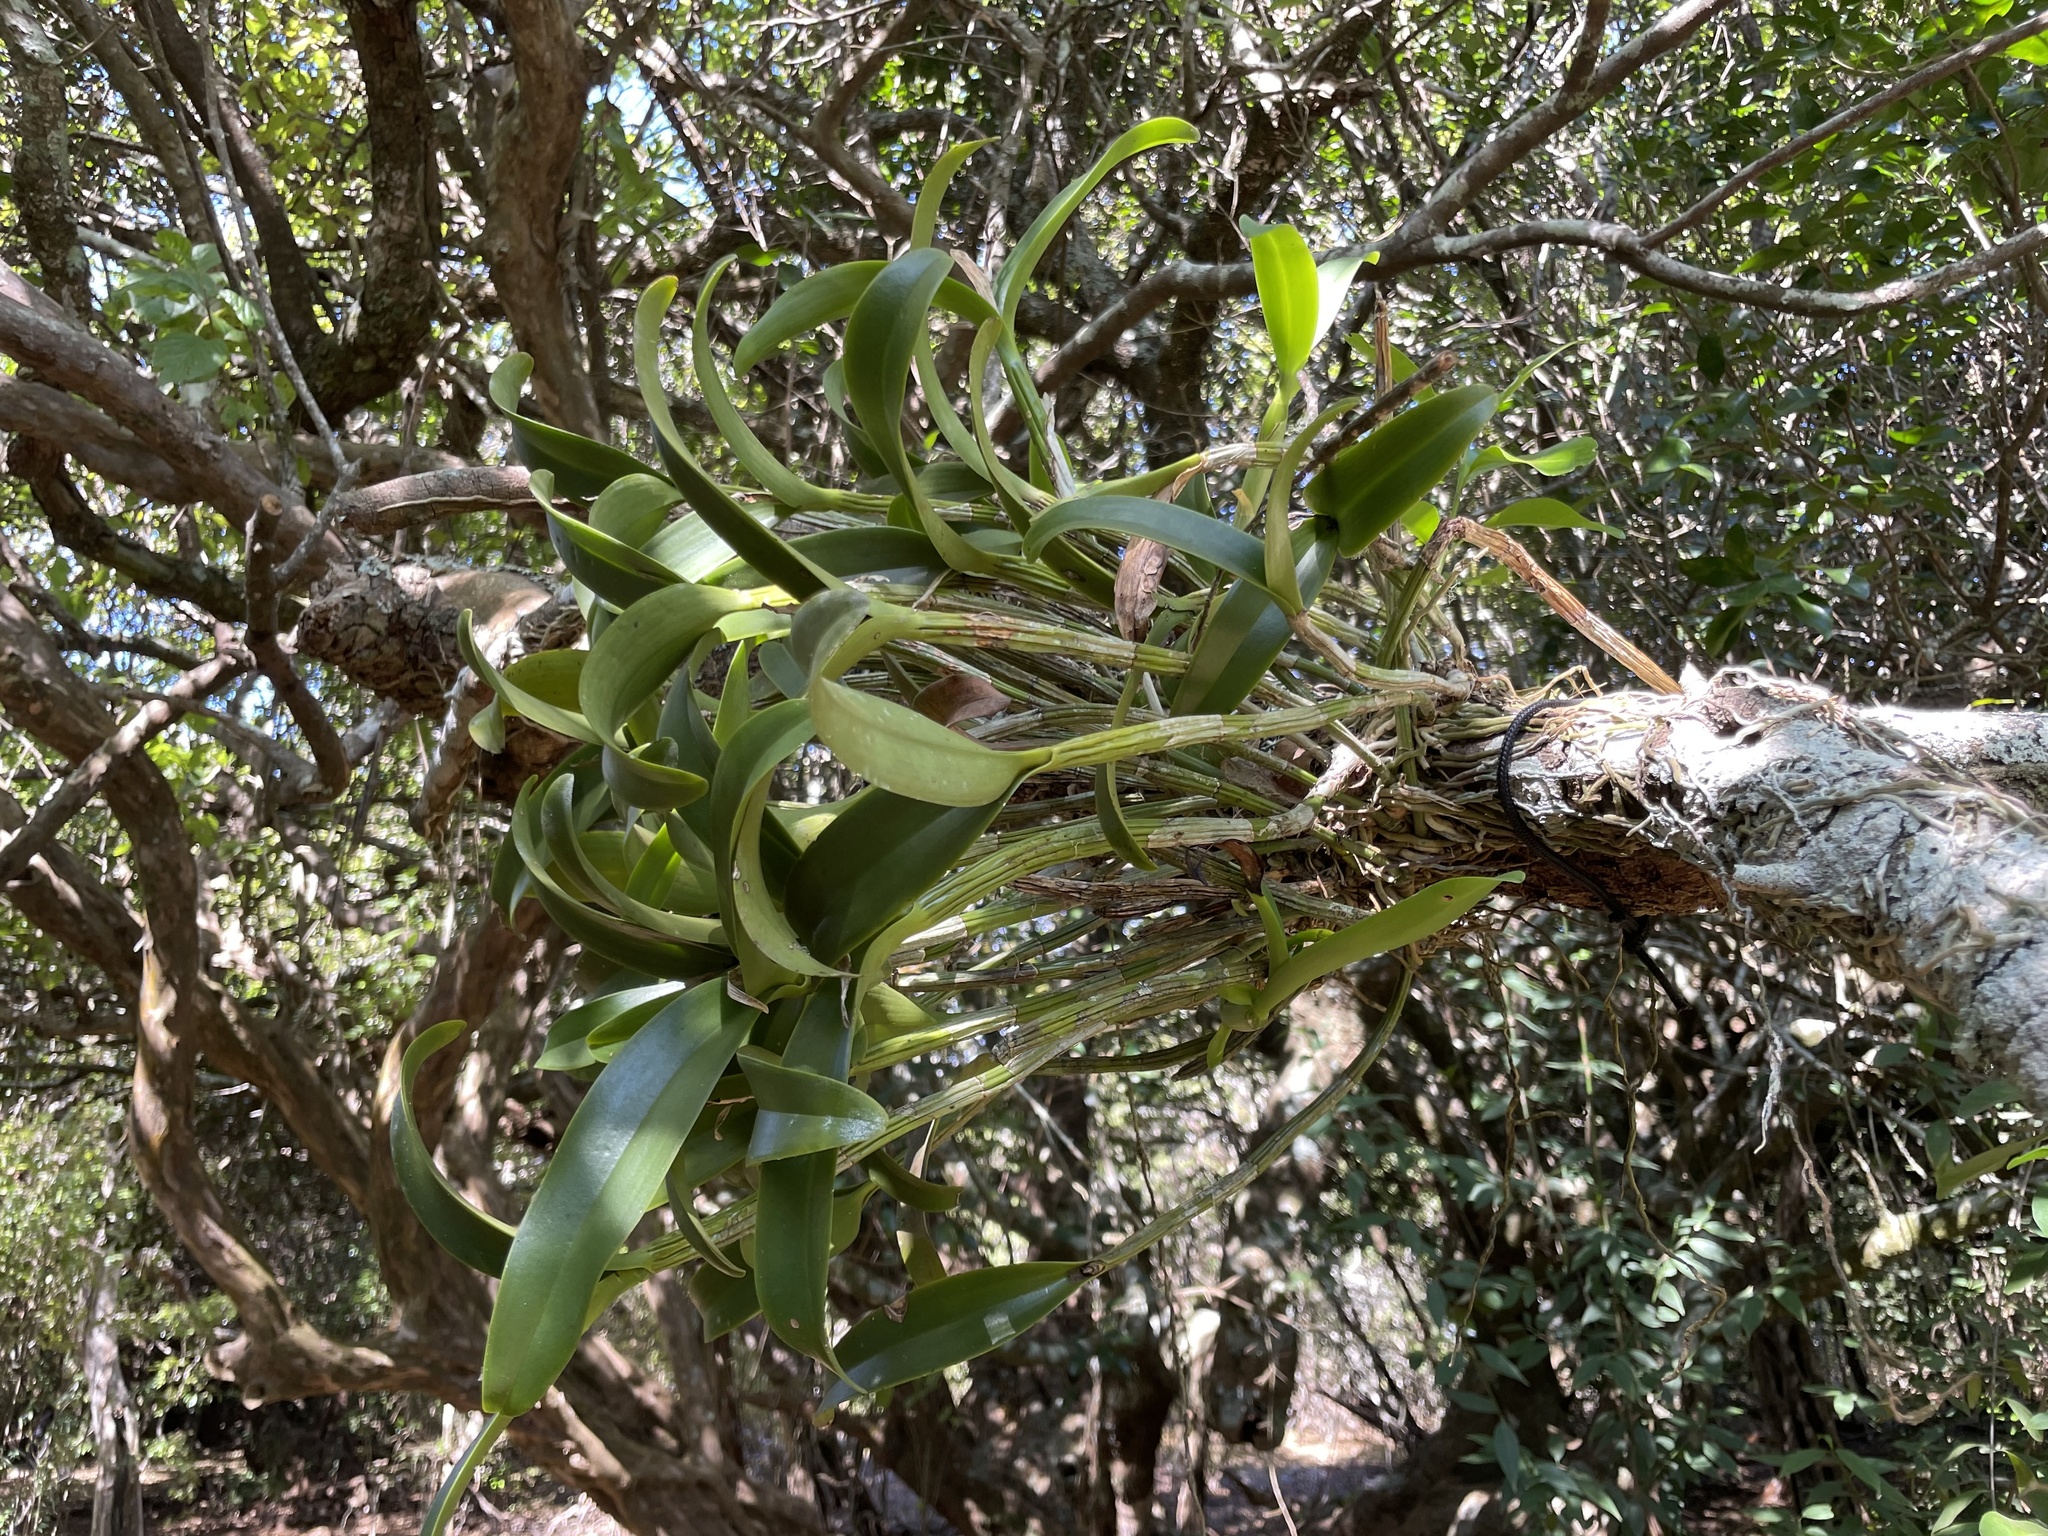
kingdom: Plantae
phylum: Tracheophyta
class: Liliopsida
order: Asparagales
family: Orchidaceae
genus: Guarianthe
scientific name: Guarianthe aurantiaca
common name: Orange cattleya
